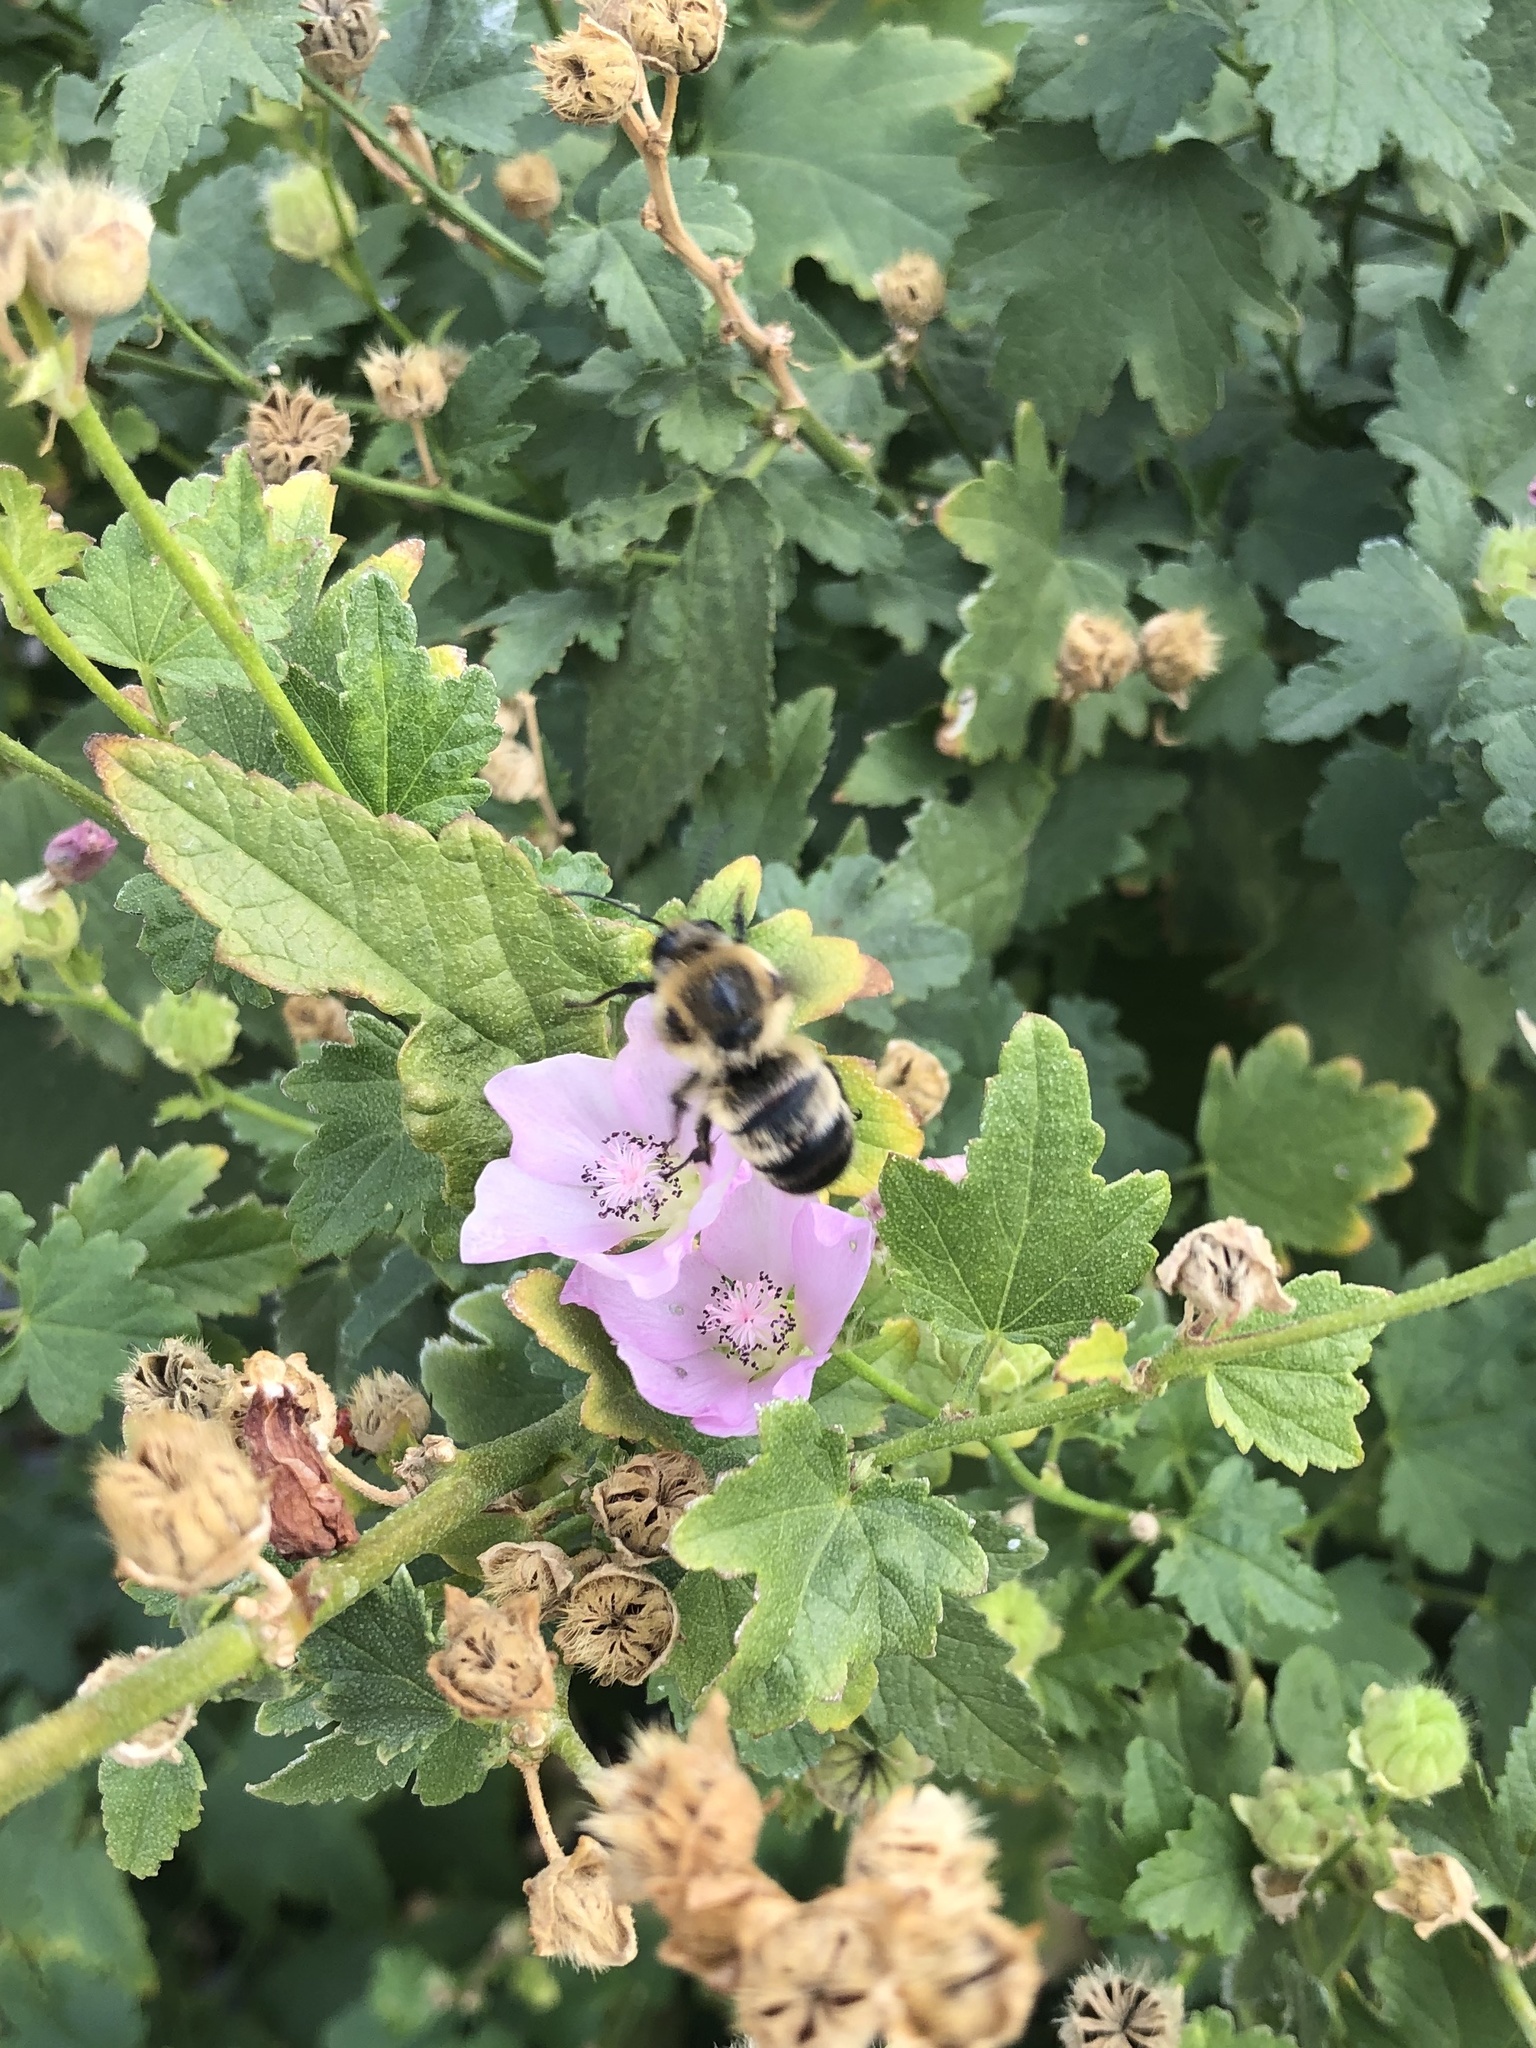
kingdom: Animalia
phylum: Arthropoda
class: Insecta
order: Hymenoptera
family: Apidae
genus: Bombus
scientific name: Bombus griseocollis
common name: Brown-belted bumble bee
